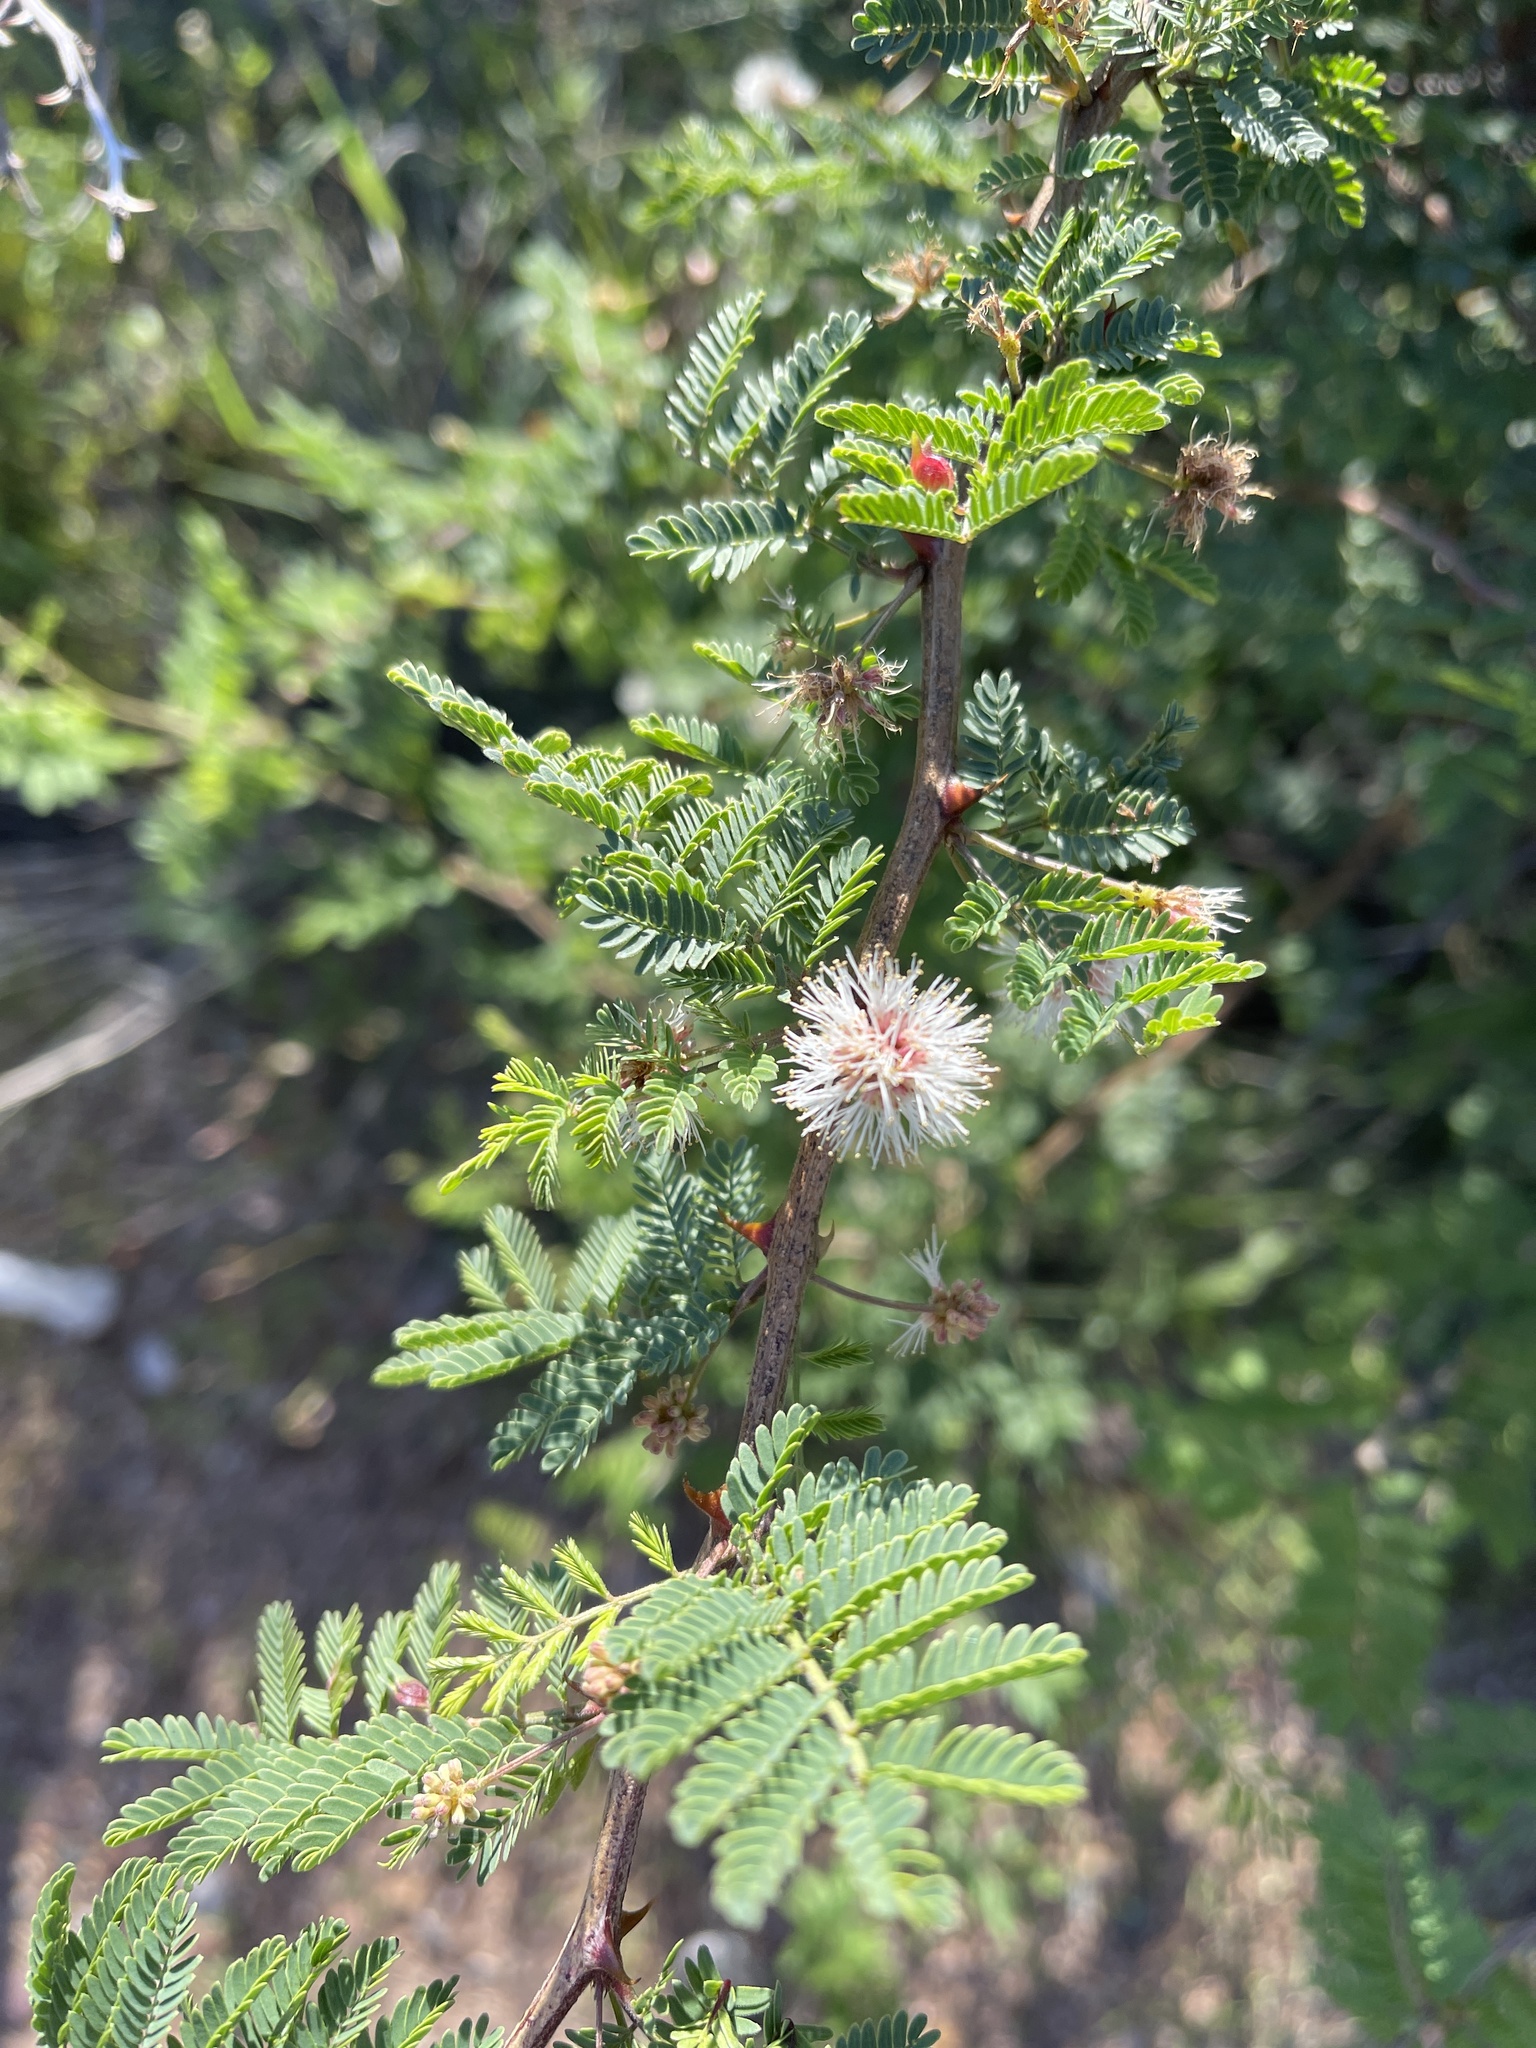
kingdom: Plantae
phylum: Tracheophyta
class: Magnoliopsida
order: Fabales
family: Fabaceae
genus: Mimosa
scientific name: Mimosa aculeaticarpa
